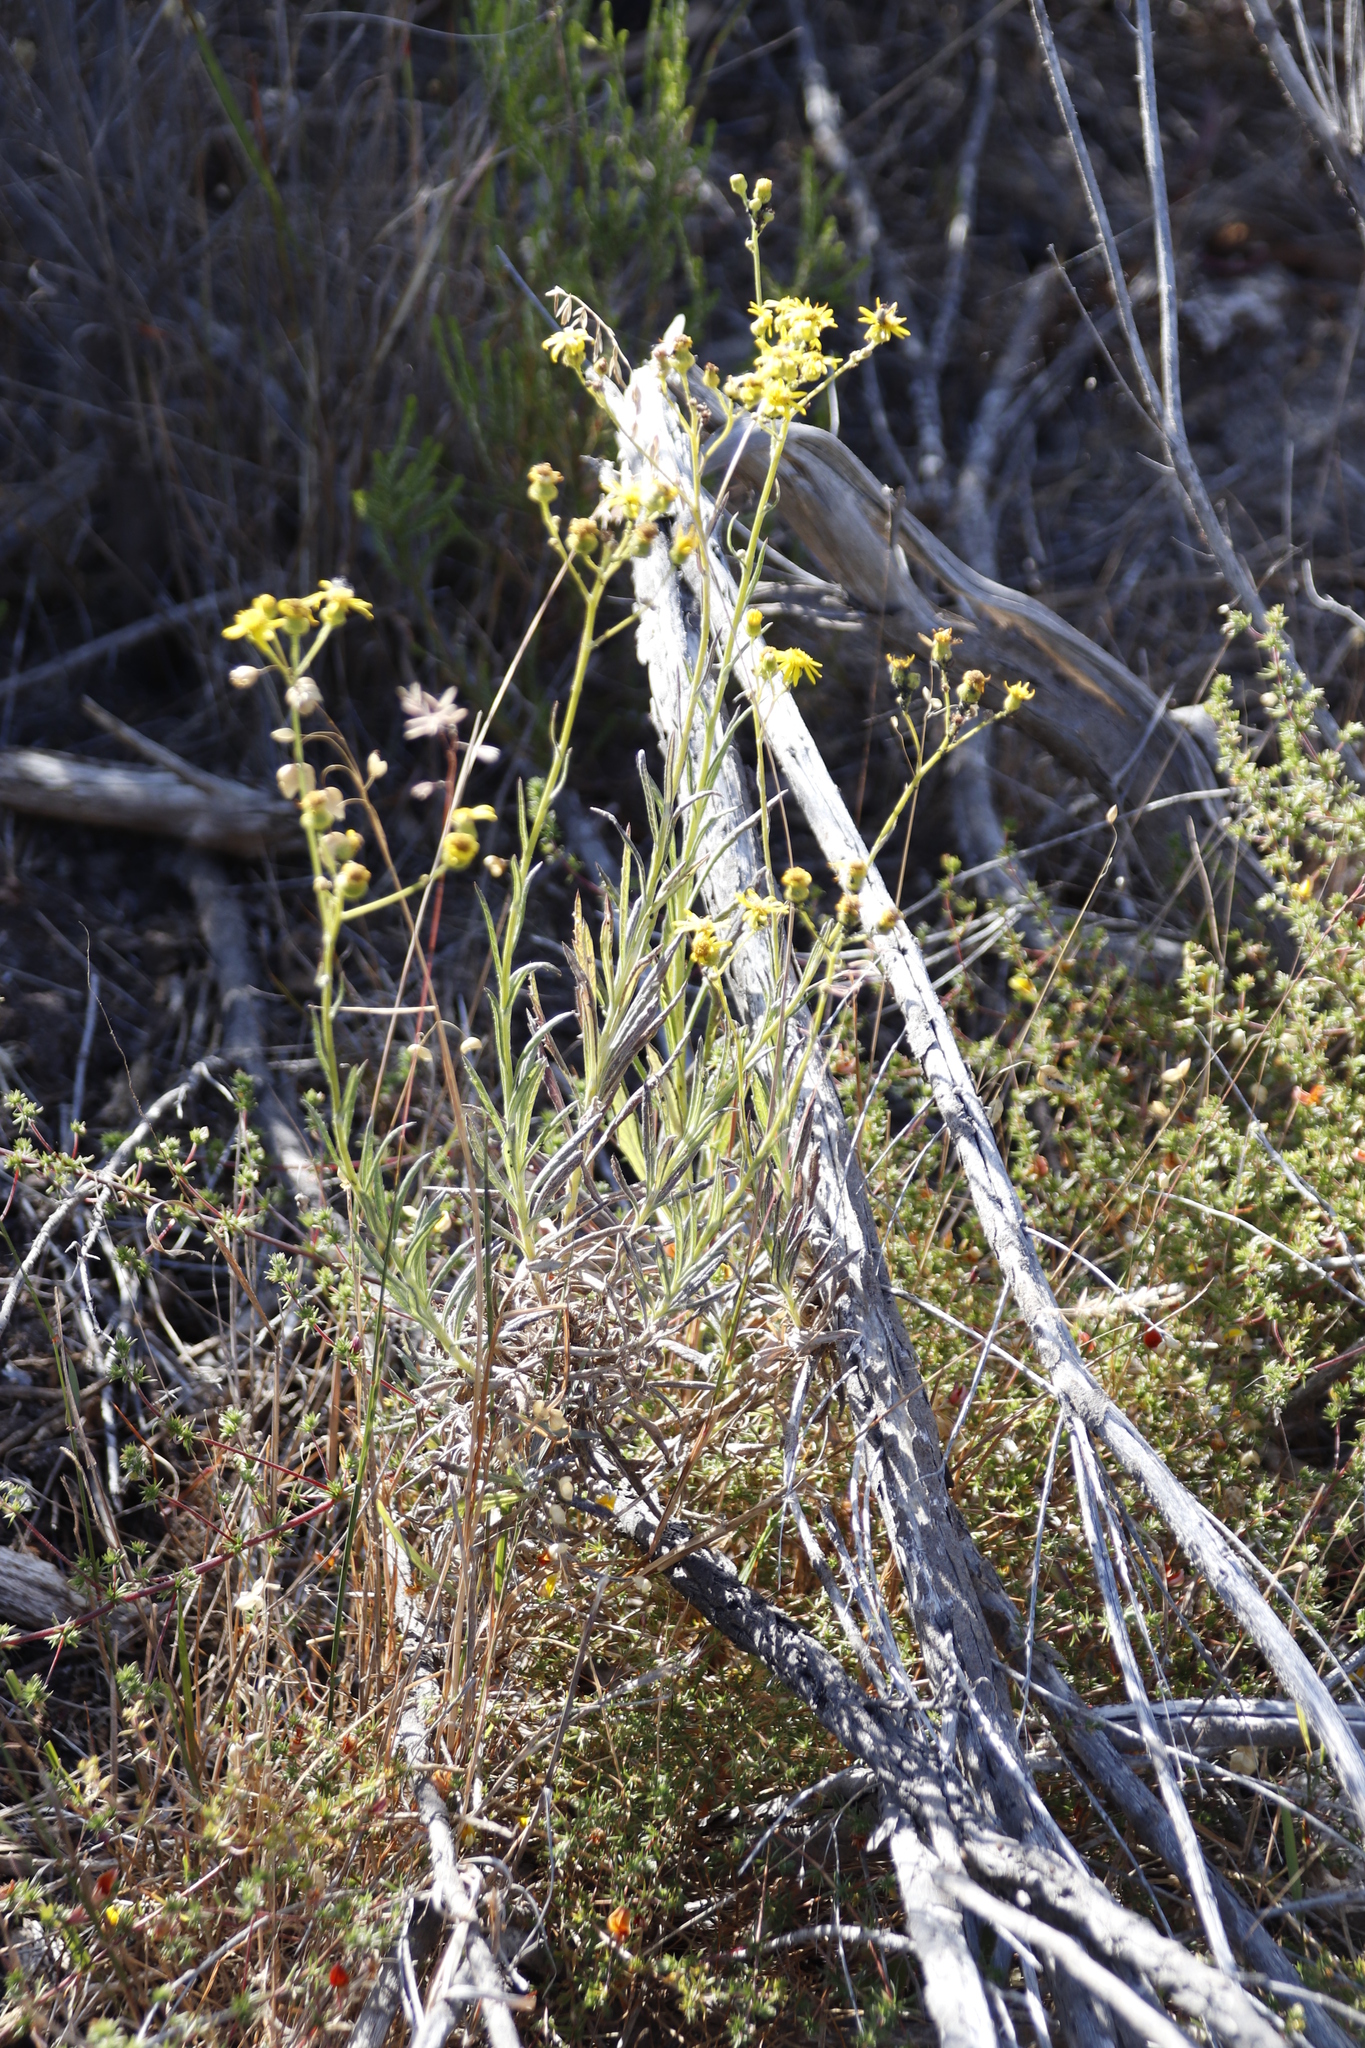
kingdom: Plantae
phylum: Tracheophyta
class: Magnoliopsida
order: Asterales
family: Asteraceae
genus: Senecio
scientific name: Senecio pterophorus
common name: Shoddy ragwort
